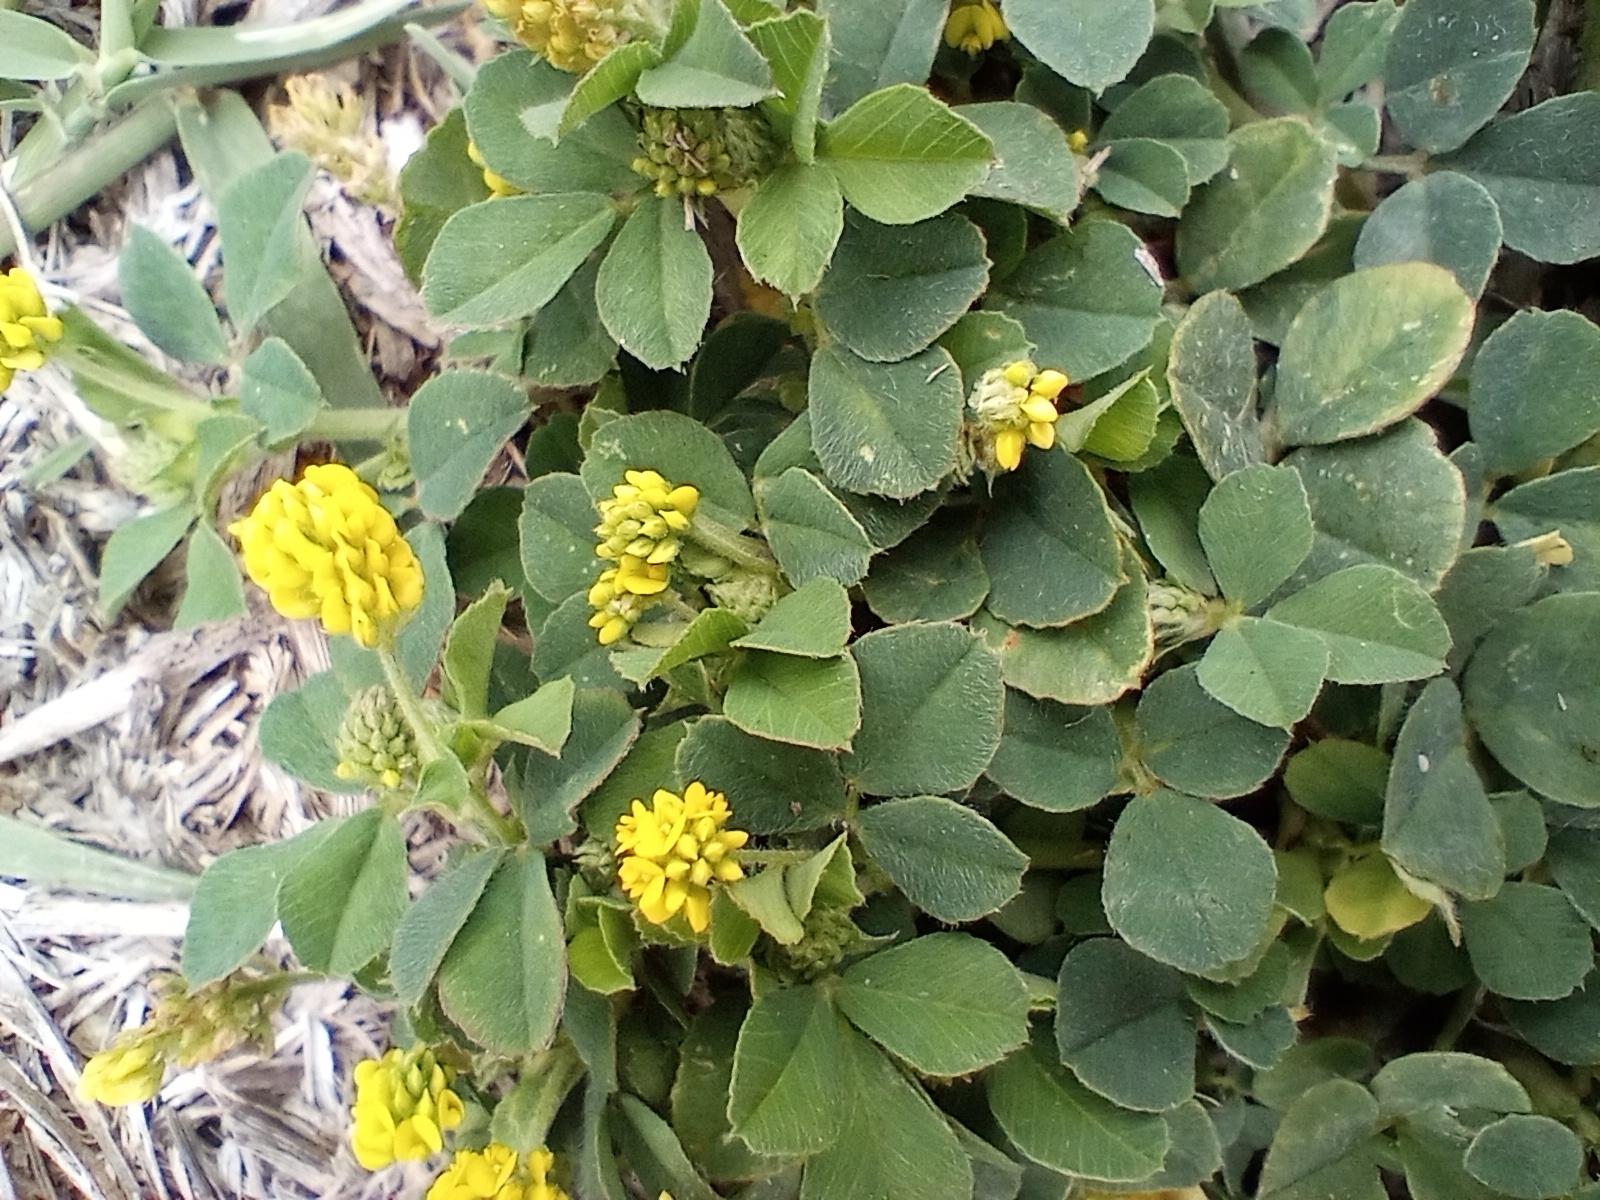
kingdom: Plantae
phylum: Tracheophyta
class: Magnoliopsida
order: Fabales
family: Fabaceae
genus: Medicago
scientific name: Medicago lupulina
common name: Black medick
